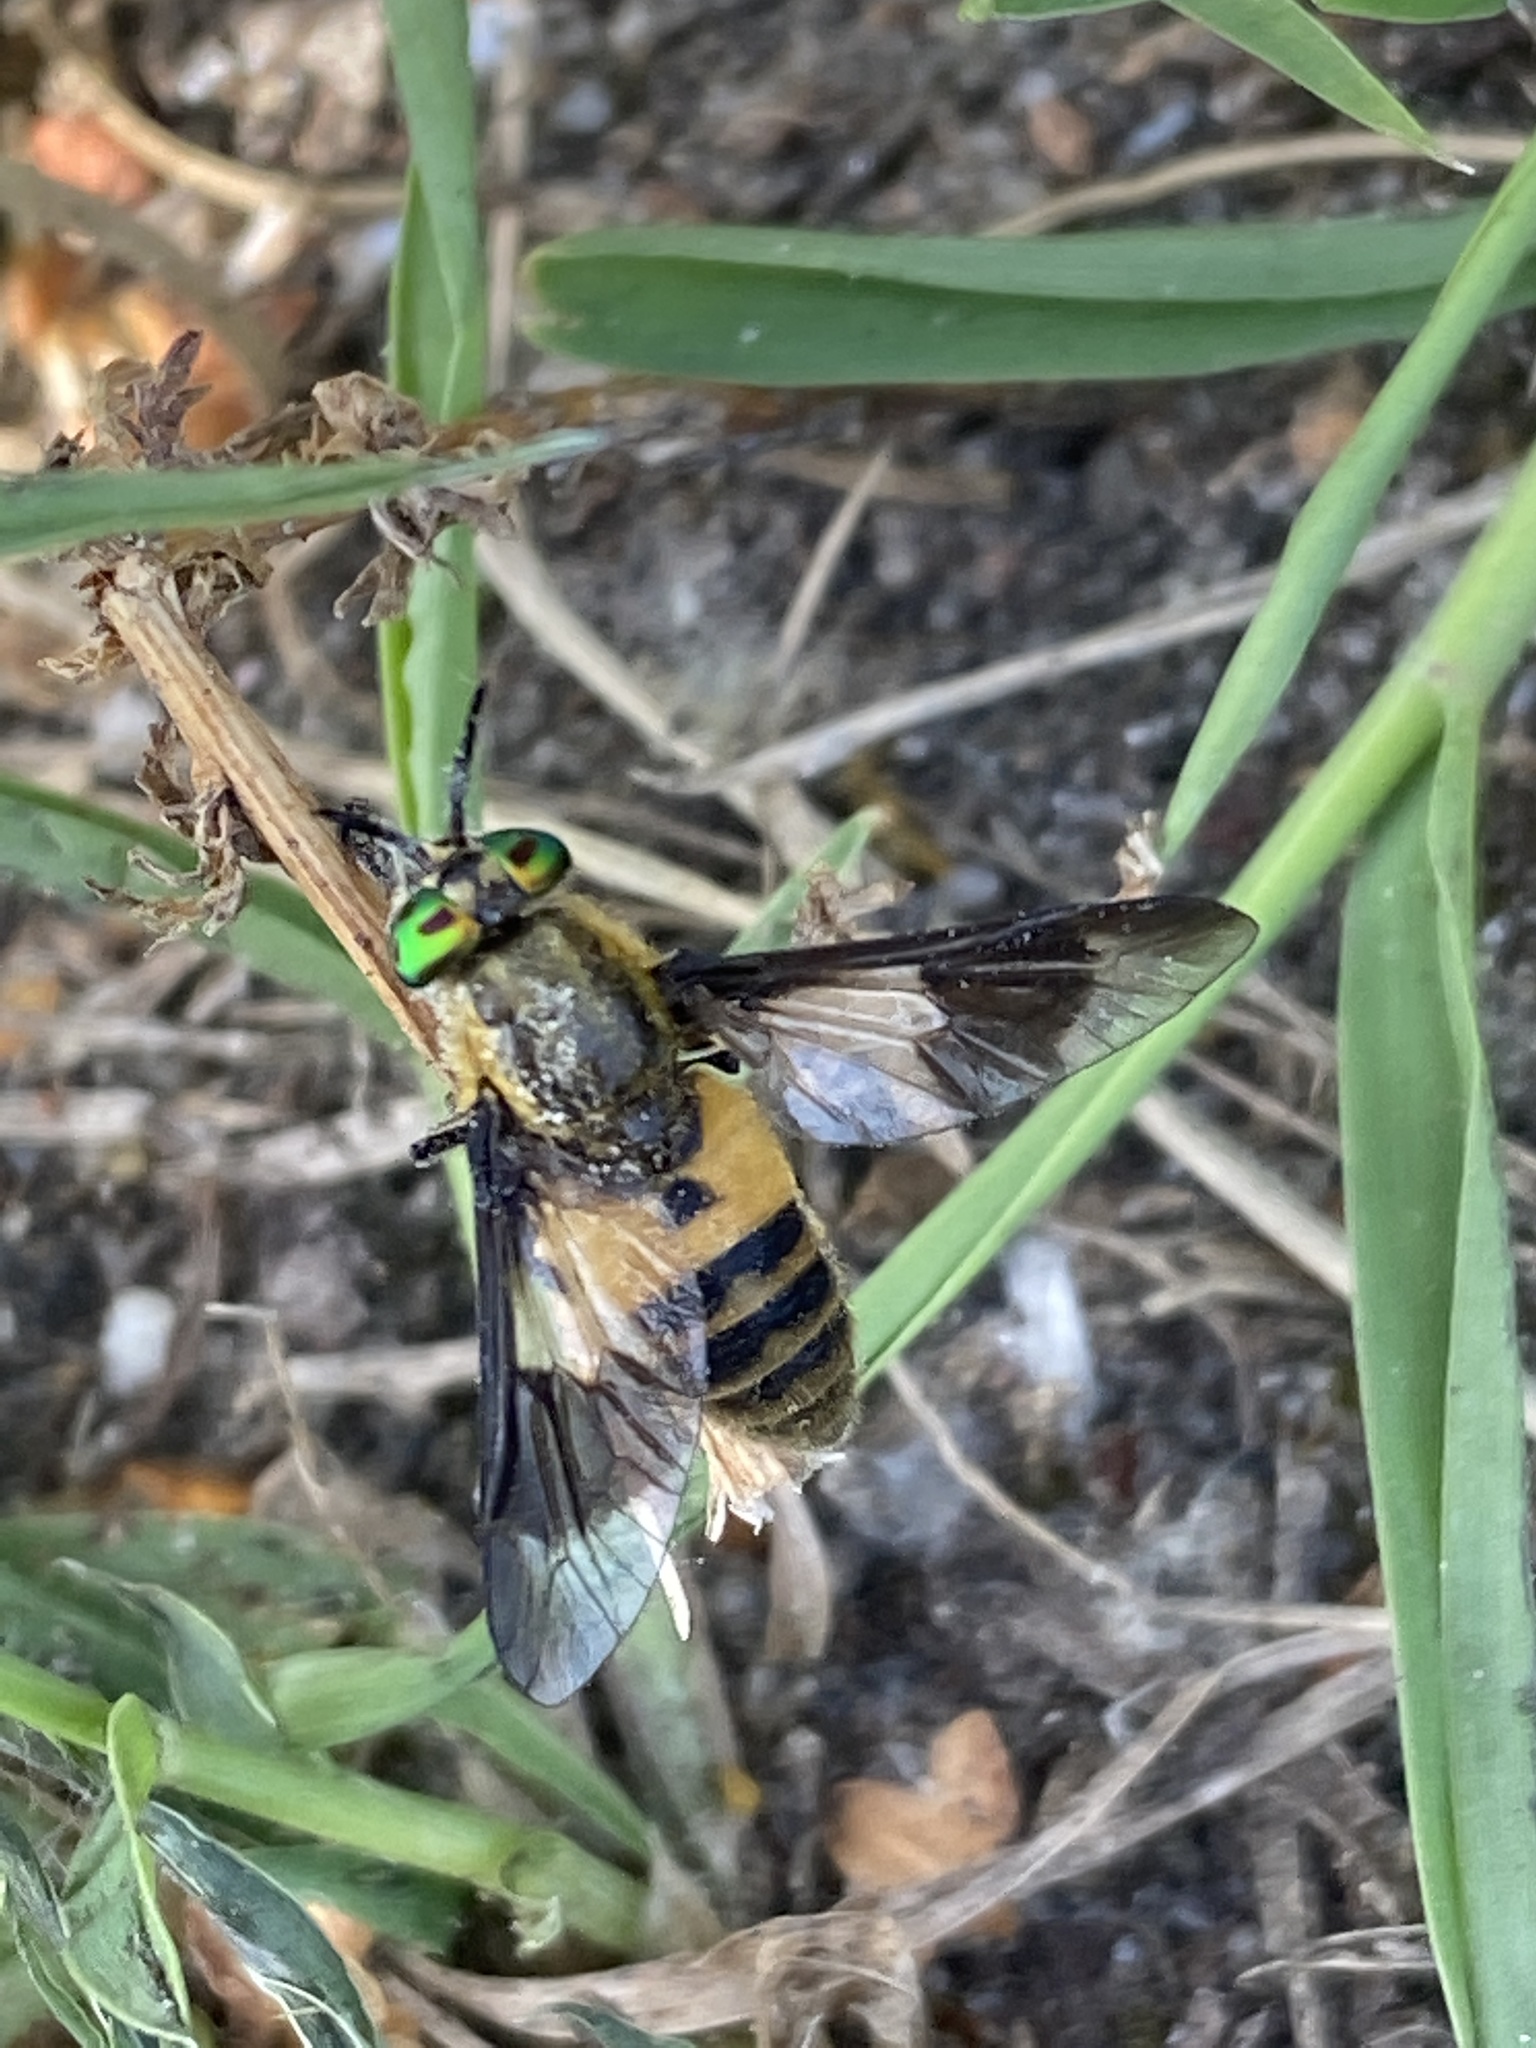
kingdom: Animalia
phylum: Arthropoda
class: Insecta
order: Diptera
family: Tabanidae
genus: Chrysops
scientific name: Chrysops viduatus
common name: Square-spot deerfly
